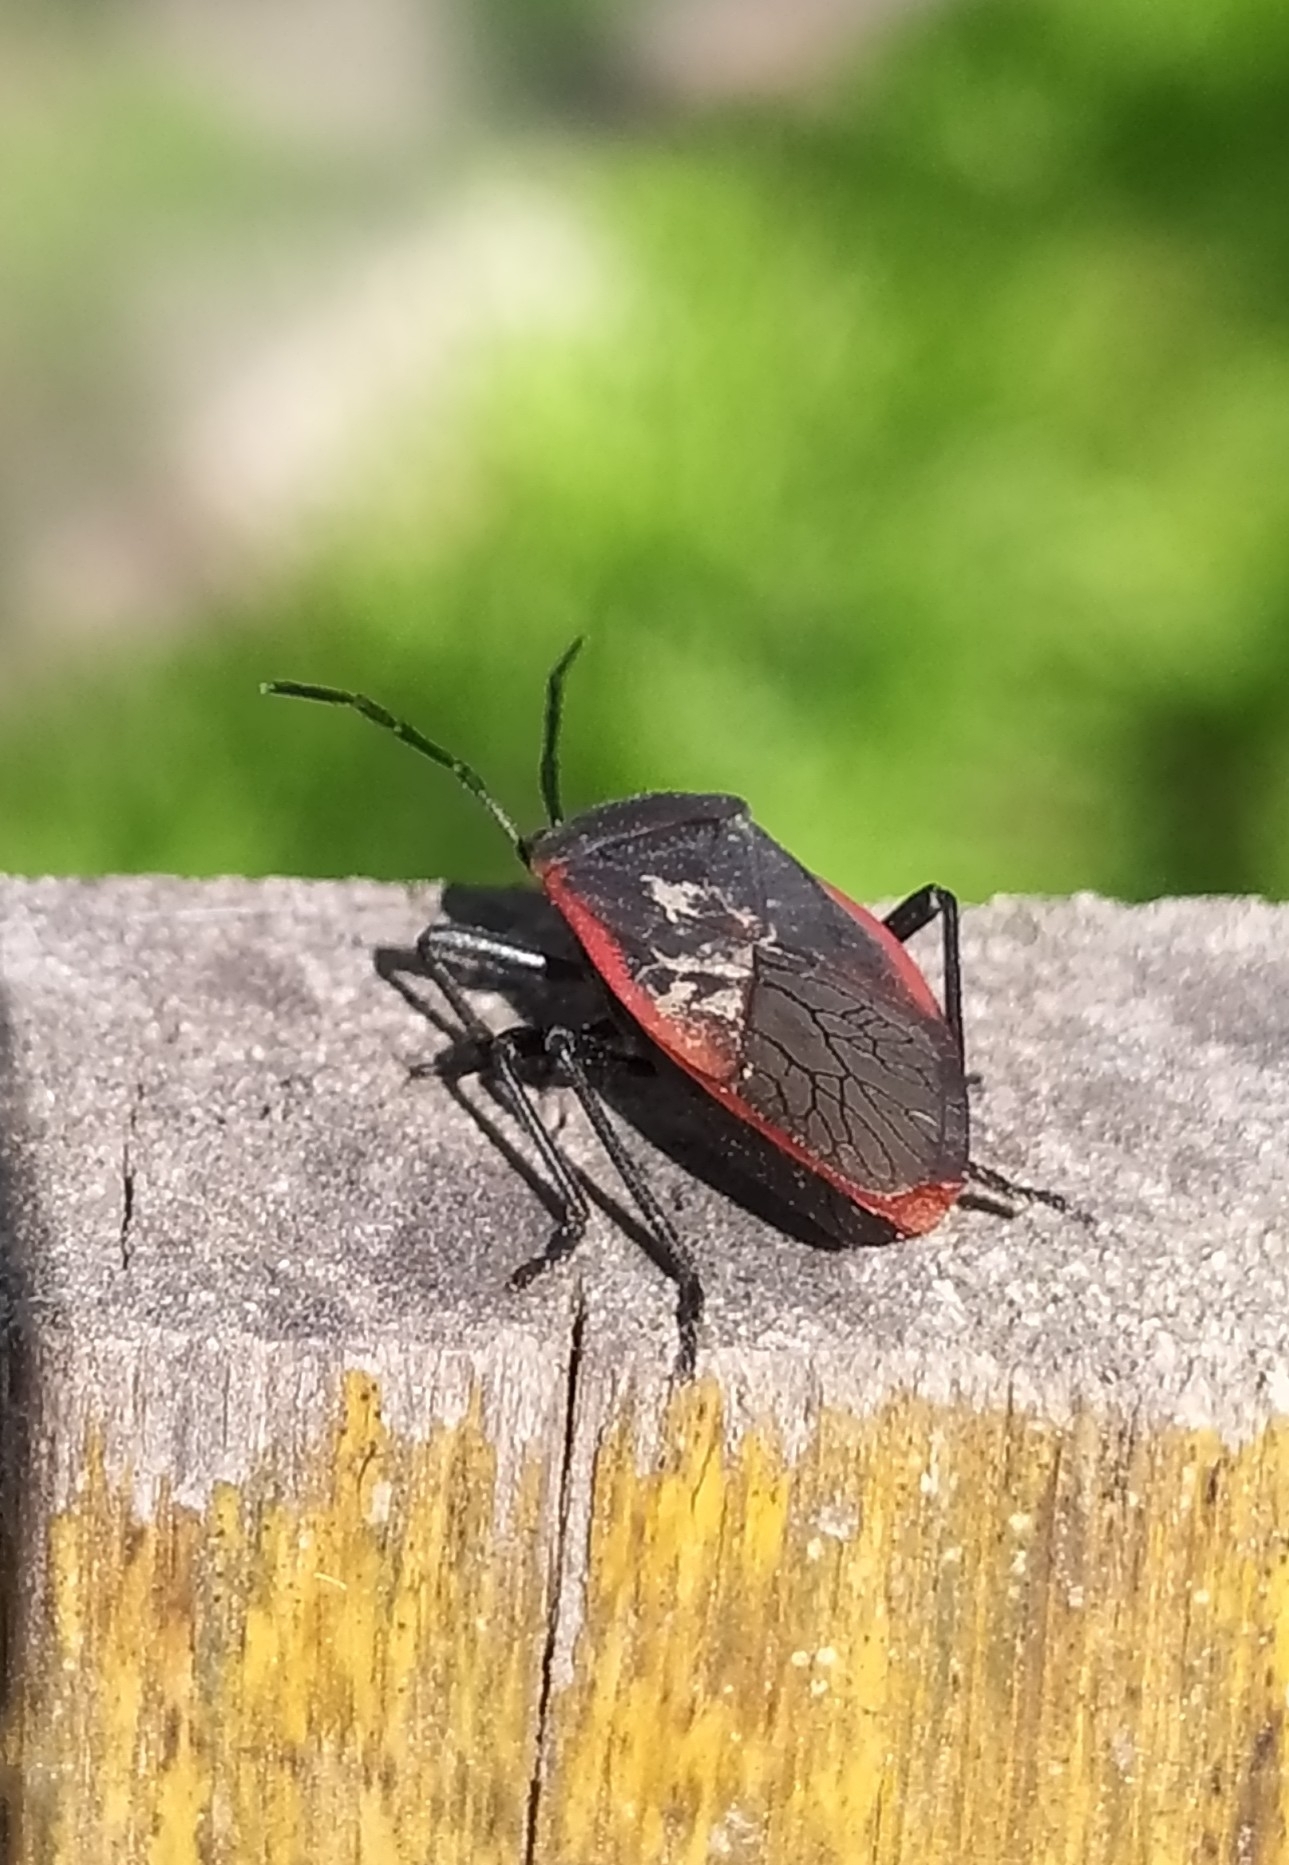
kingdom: Animalia
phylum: Arthropoda
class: Insecta
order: Hemiptera
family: Largidae
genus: Largus
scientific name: Largus rufipennis
